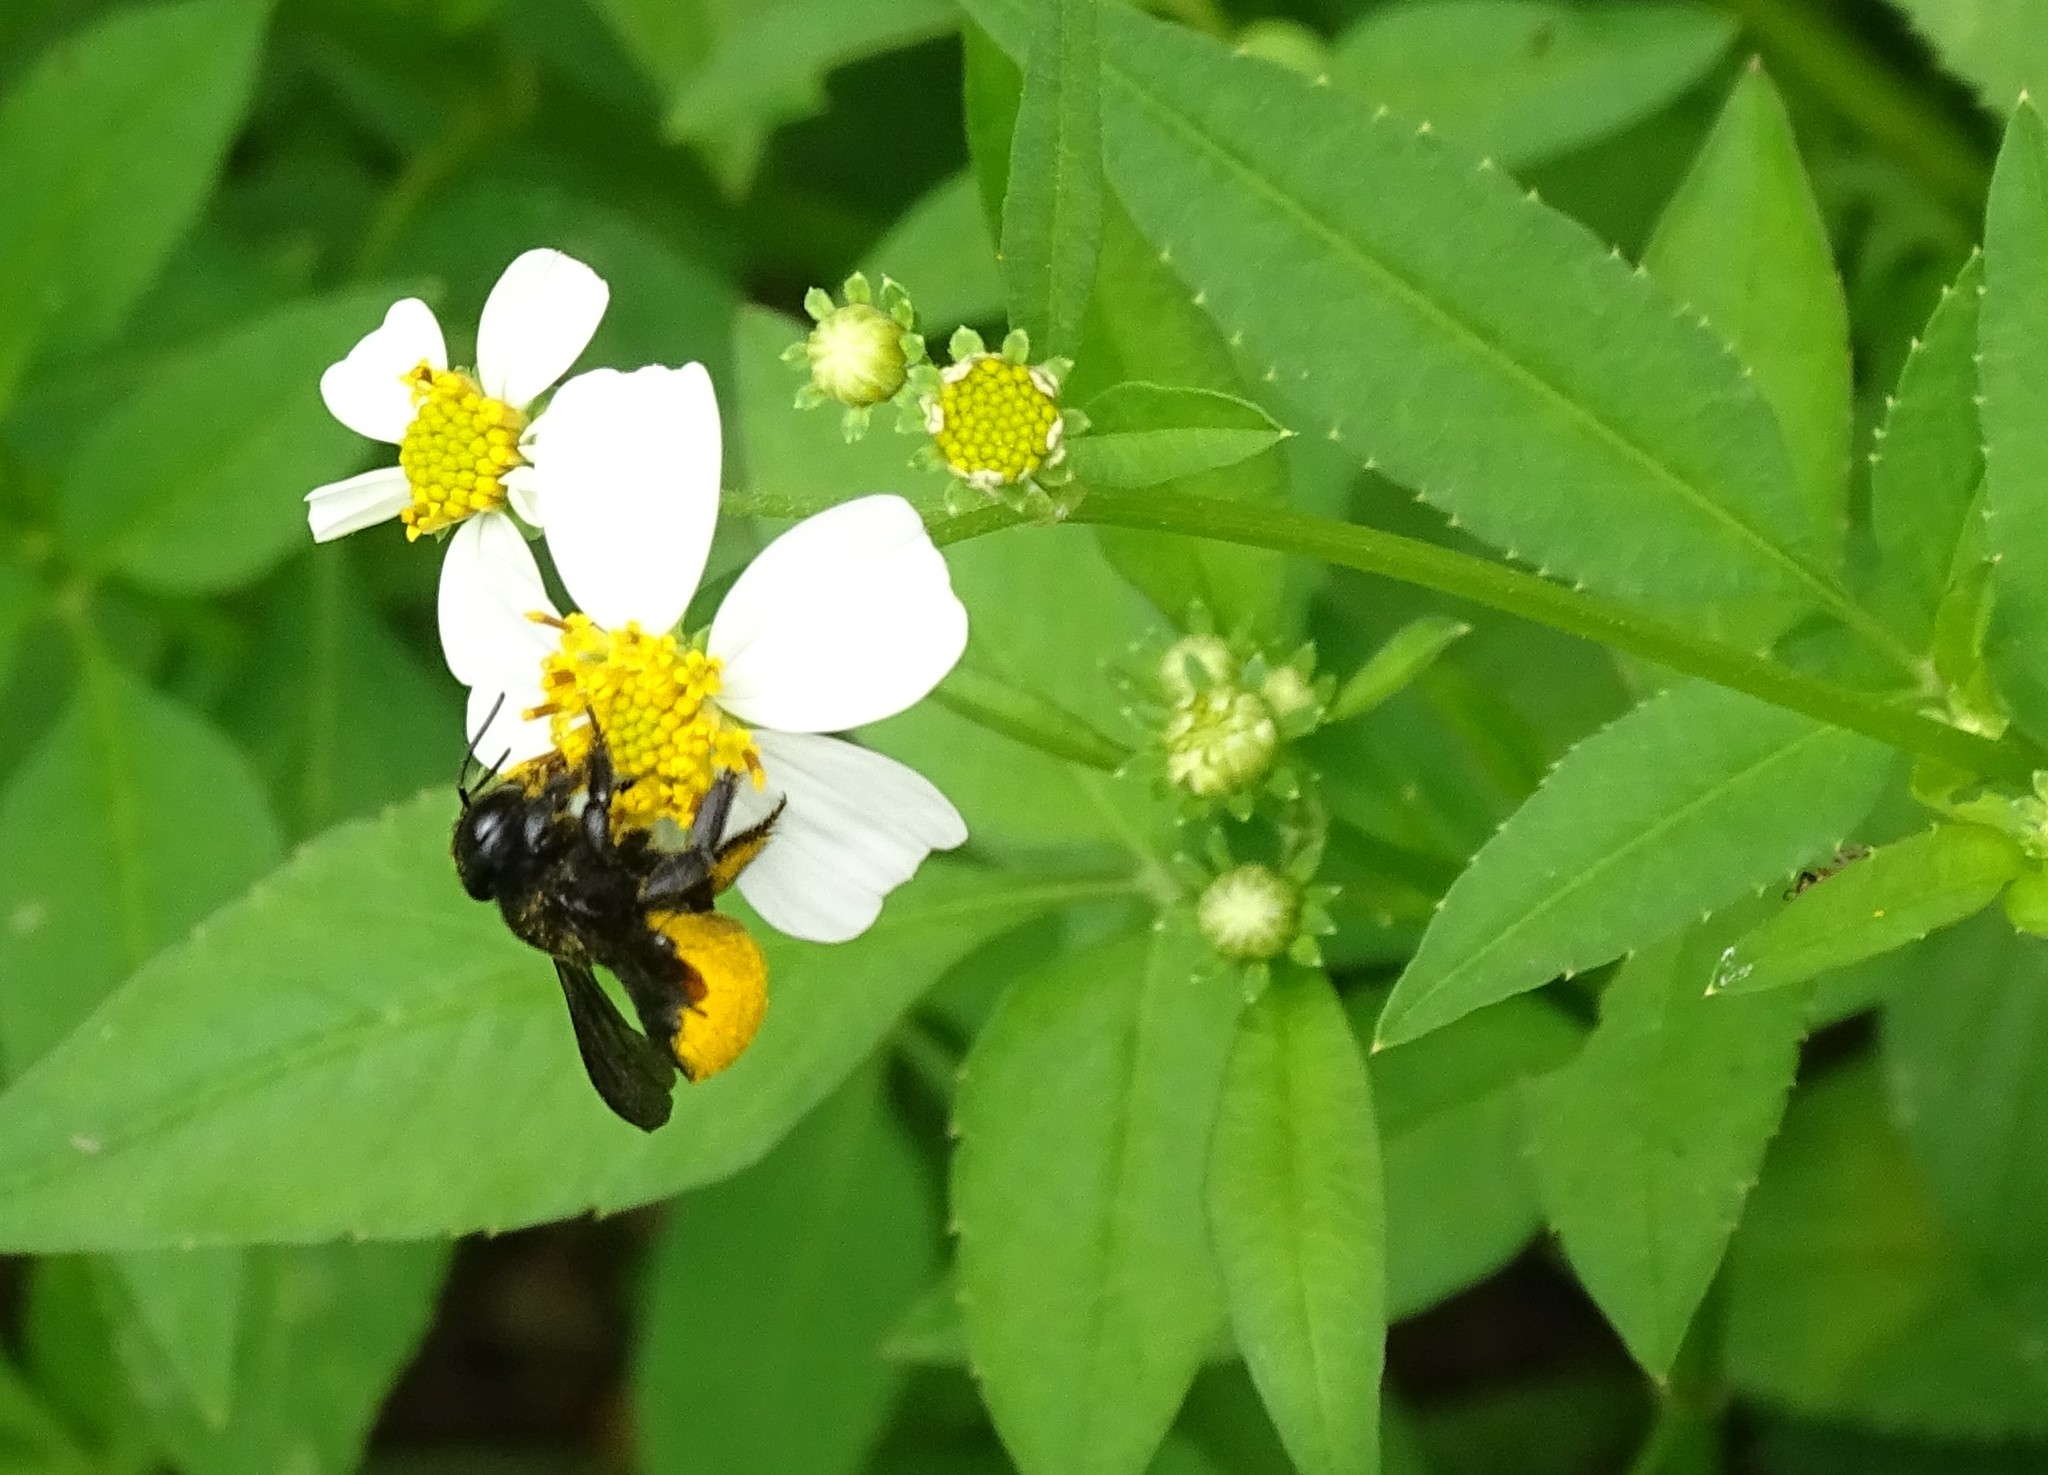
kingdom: Animalia
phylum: Arthropoda
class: Insecta
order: Hymenoptera
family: Megachilidae
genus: Megachile
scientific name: Megachile xylocopoides
